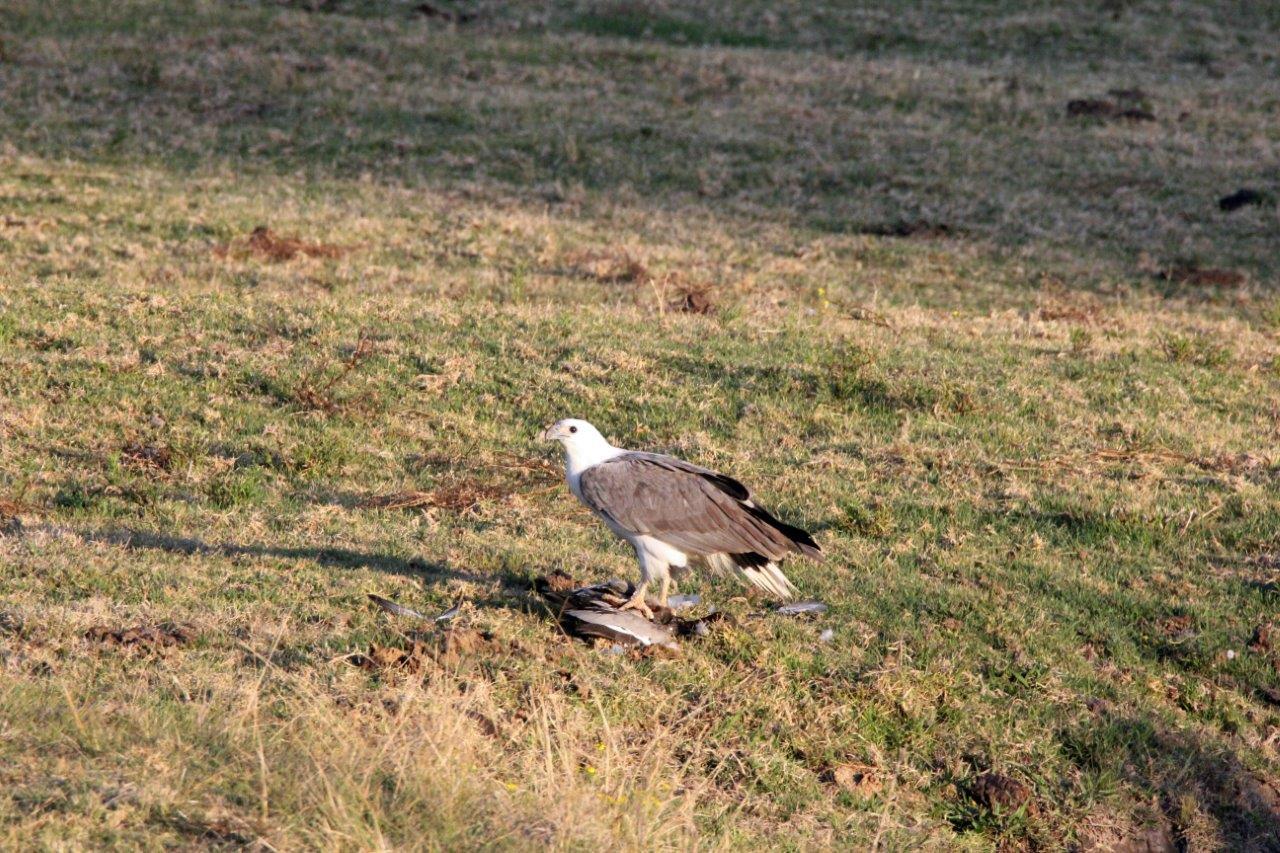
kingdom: Animalia
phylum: Chordata
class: Aves
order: Accipitriformes
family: Accipitridae
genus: Haliaeetus
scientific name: Haliaeetus leucogaster
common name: White-bellied sea eagle
